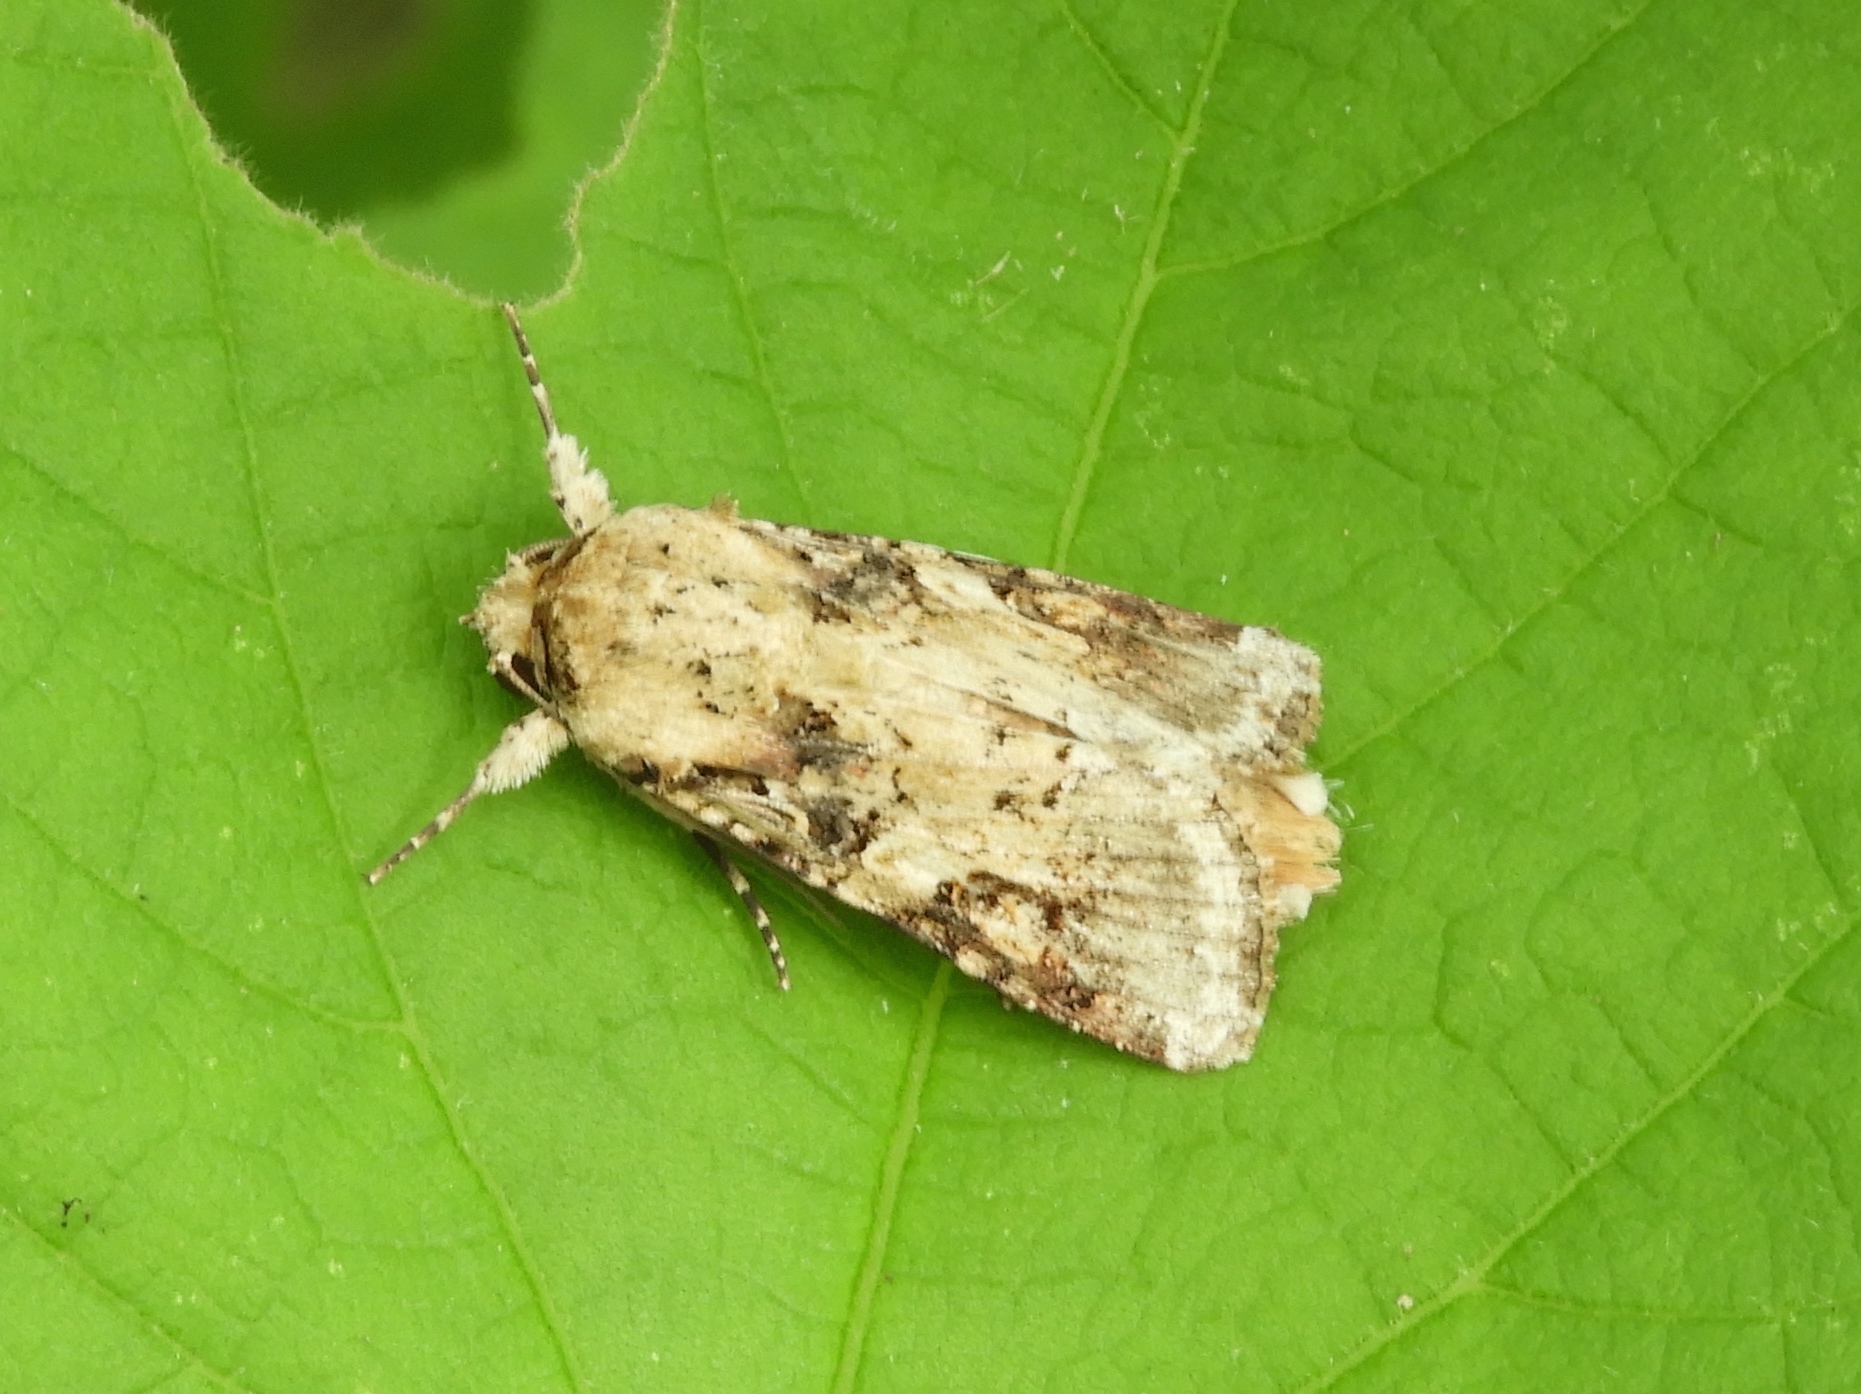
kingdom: Animalia
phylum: Arthropoda
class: Insecta
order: Lepidoptera
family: Noctuidae
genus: Spodoptera
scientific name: Spodoptera latifascia
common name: Velvet armyworm moth
